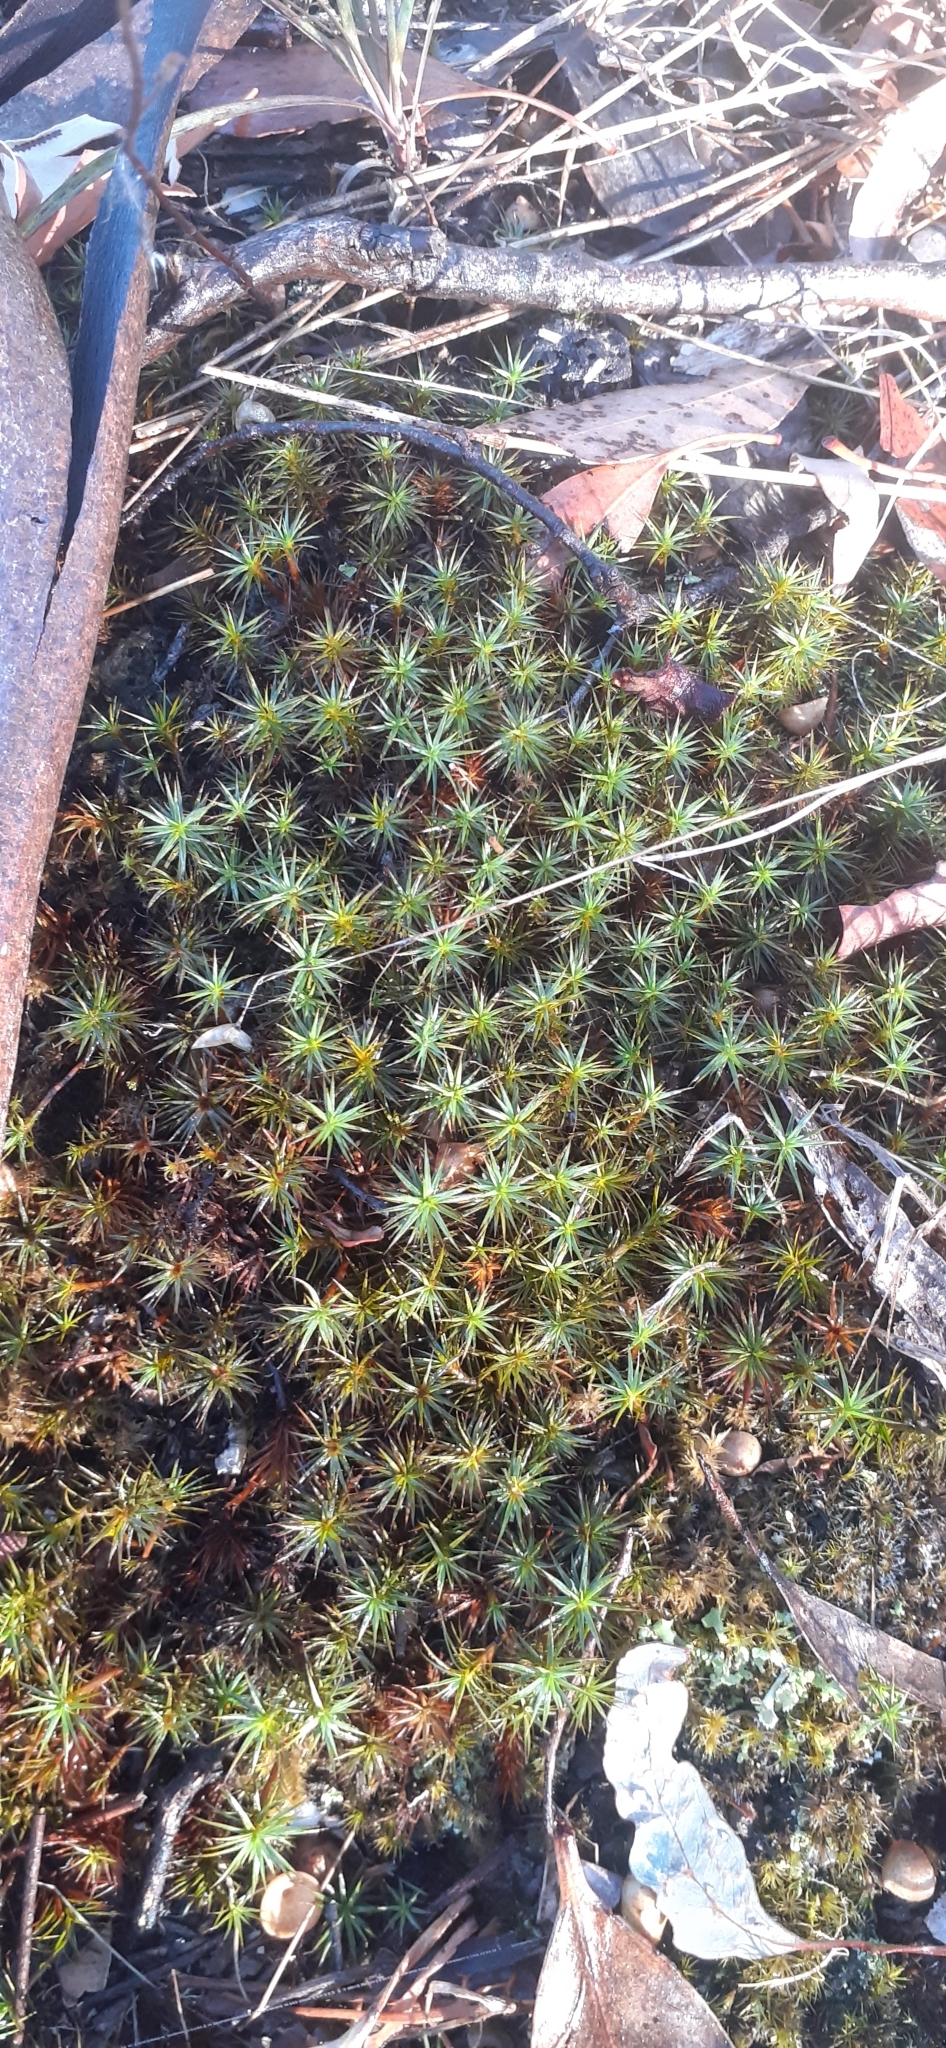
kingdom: Plantae
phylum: Bryophyta
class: Polytrichopsida
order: Polytrichales
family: Polytrichaceae
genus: Polytrichum
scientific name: Polytrichum juniperinum
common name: Juniper haircap moss
